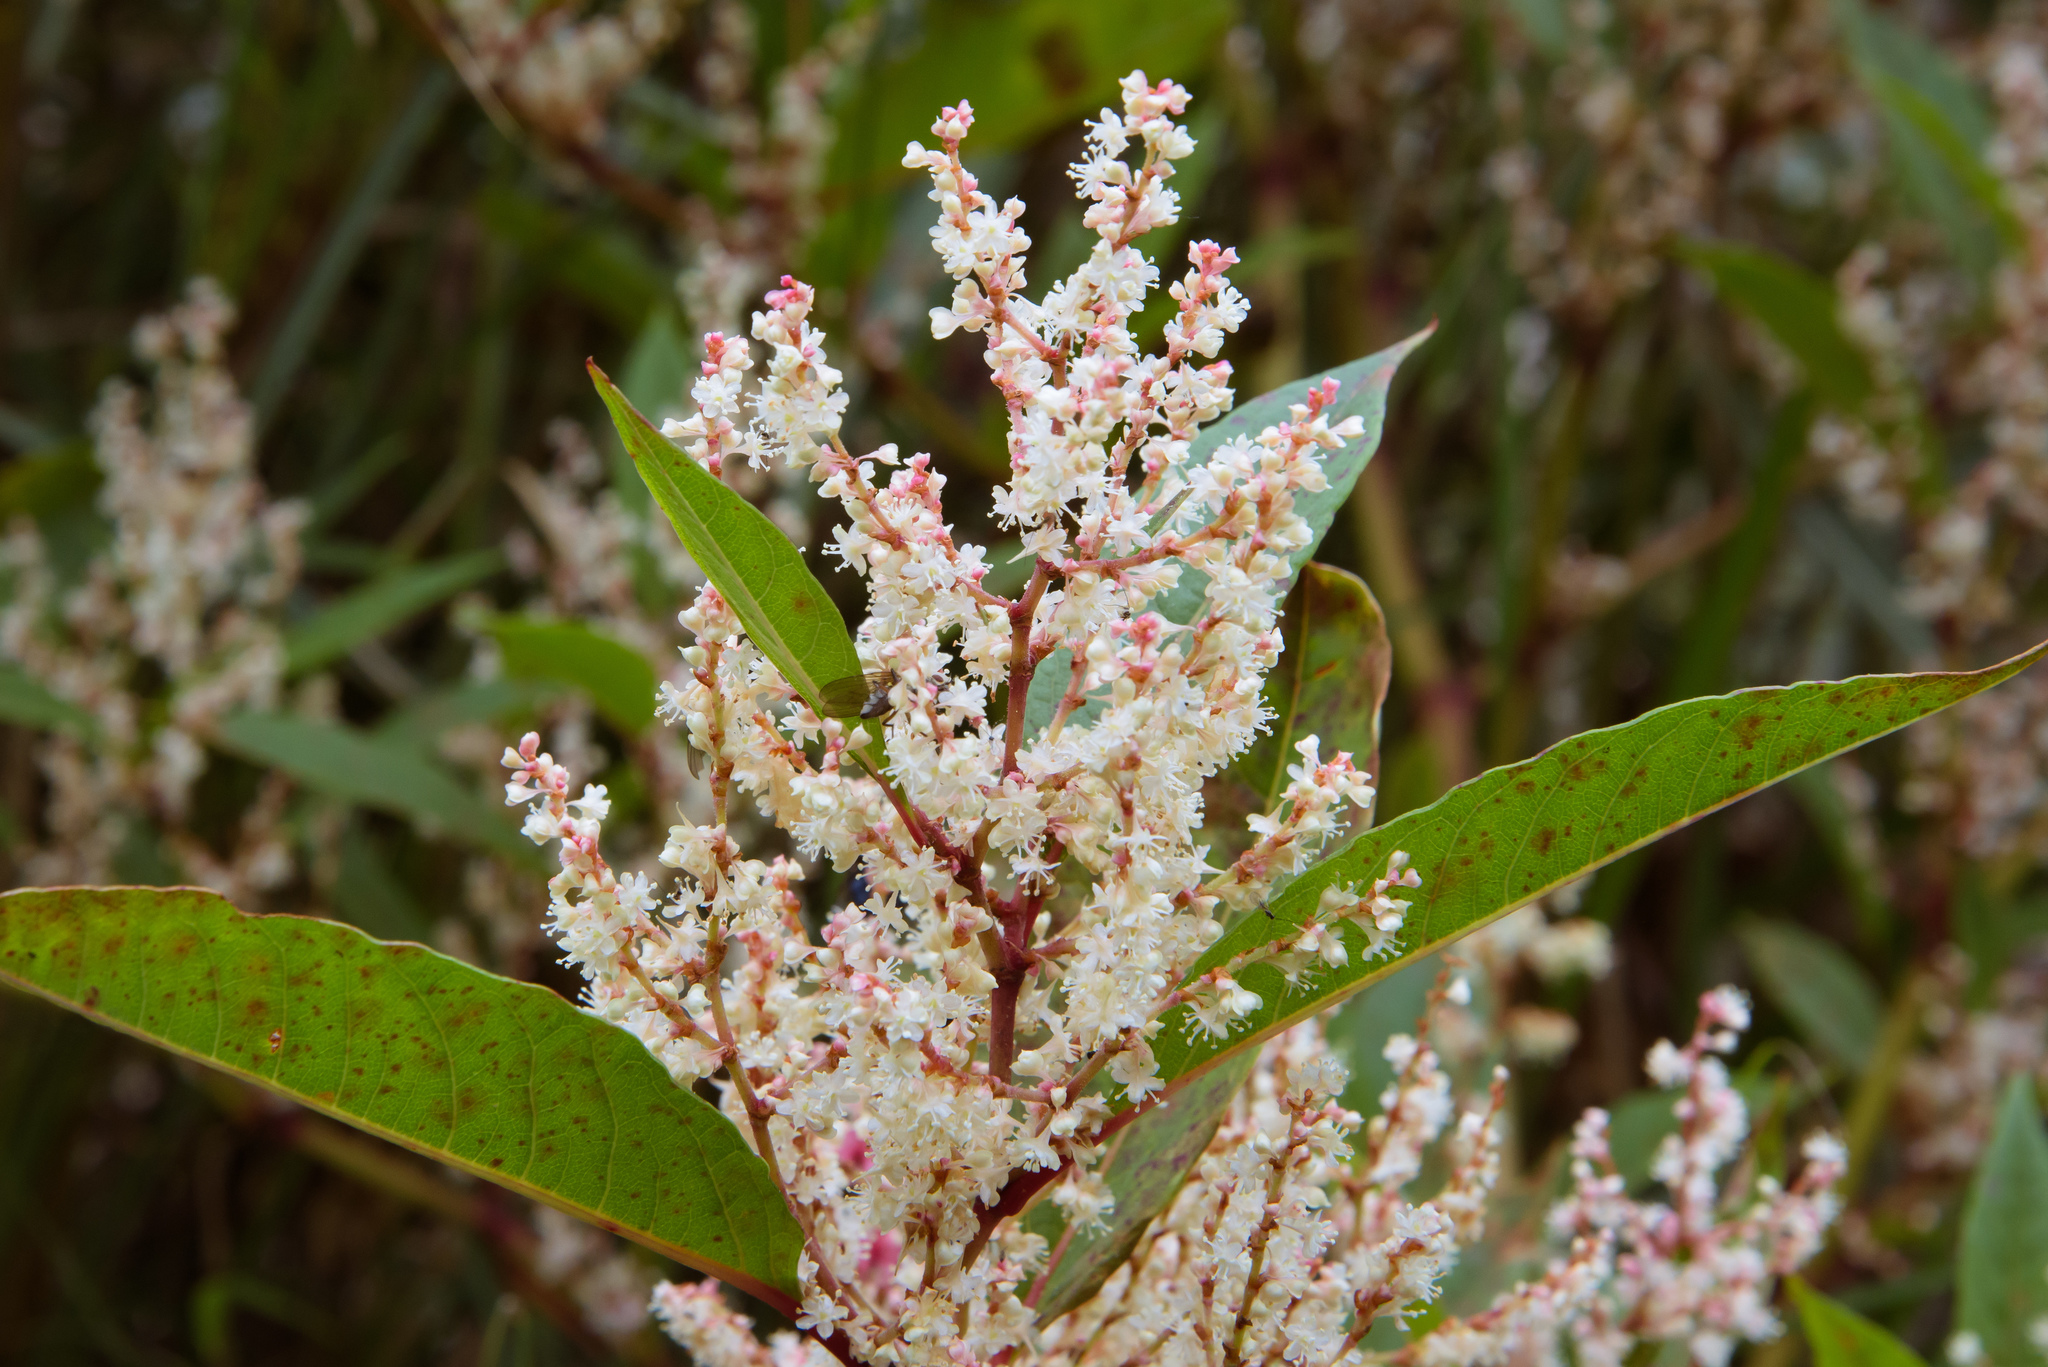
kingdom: Plantae
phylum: Tracheophyta
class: Magnoliopsida
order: Caryophyllales
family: Polygonaceae
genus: Reynoutria
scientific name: Reynoutria japonica
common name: Japanese knotweed
